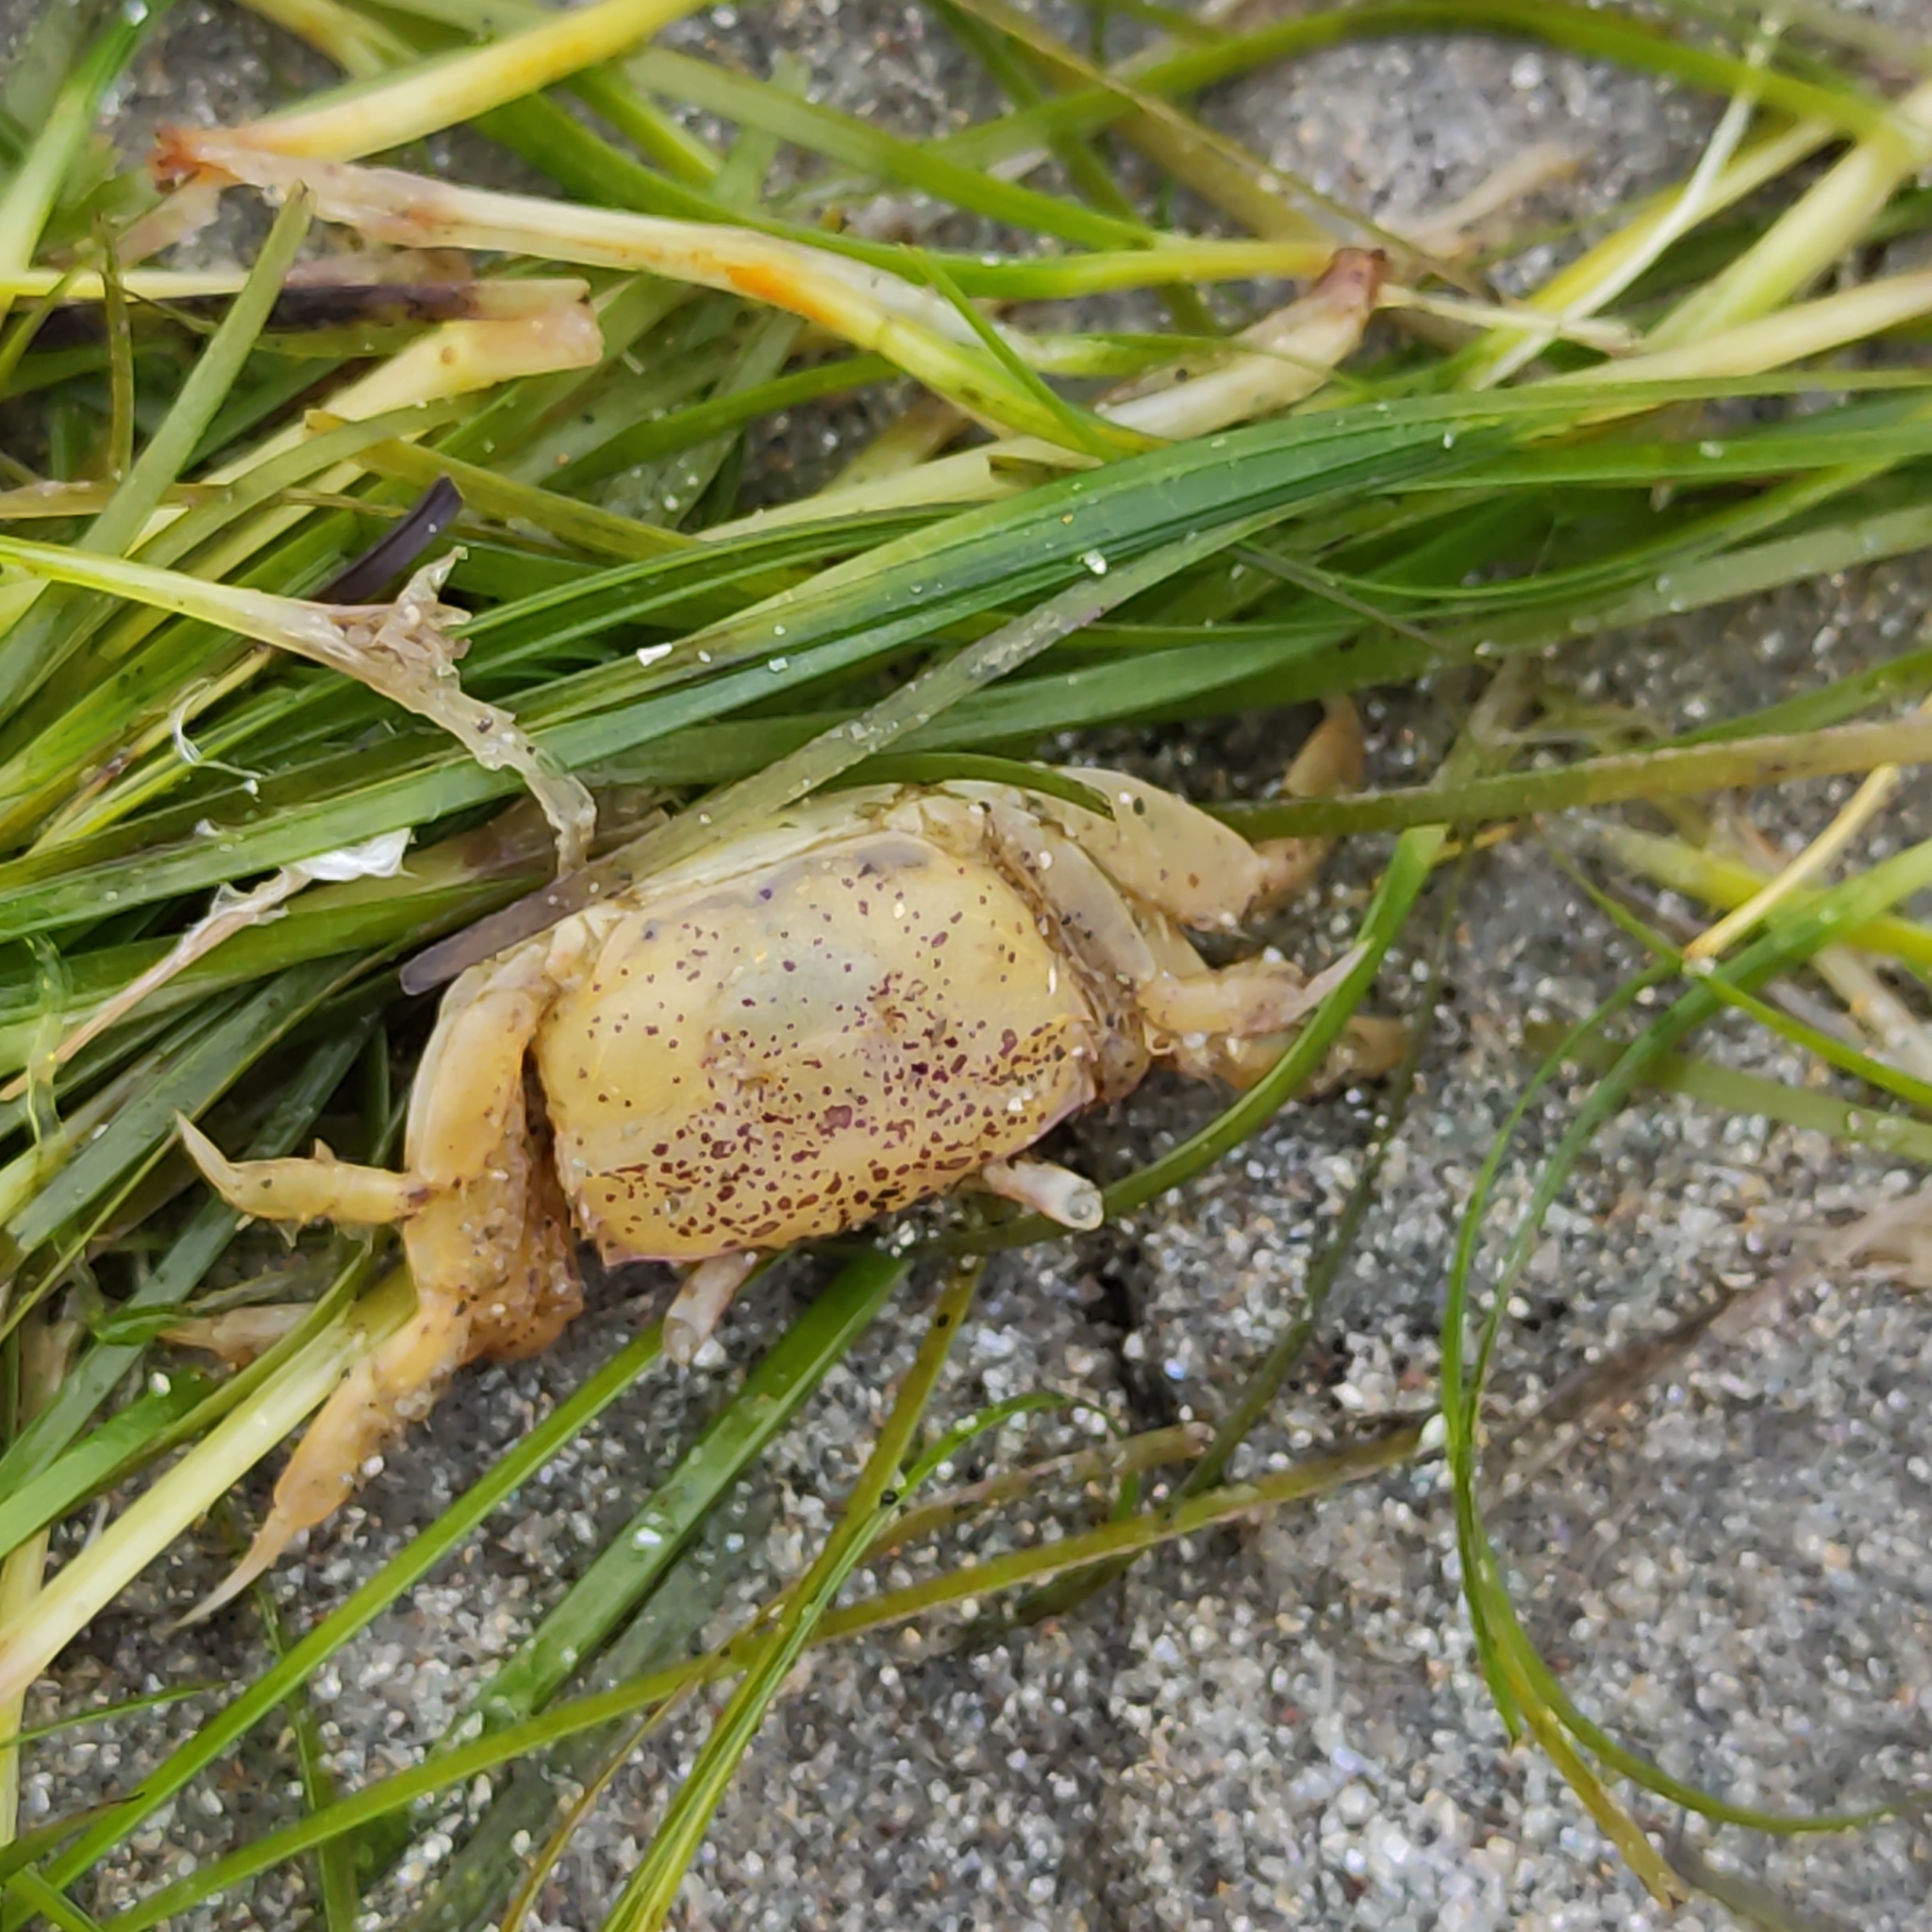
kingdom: Animalia
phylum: Arthropoda
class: Malacostraca
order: Decapoda
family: Macrophthalmidae
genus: Hemiplax
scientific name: Hemiplax hirtipes
